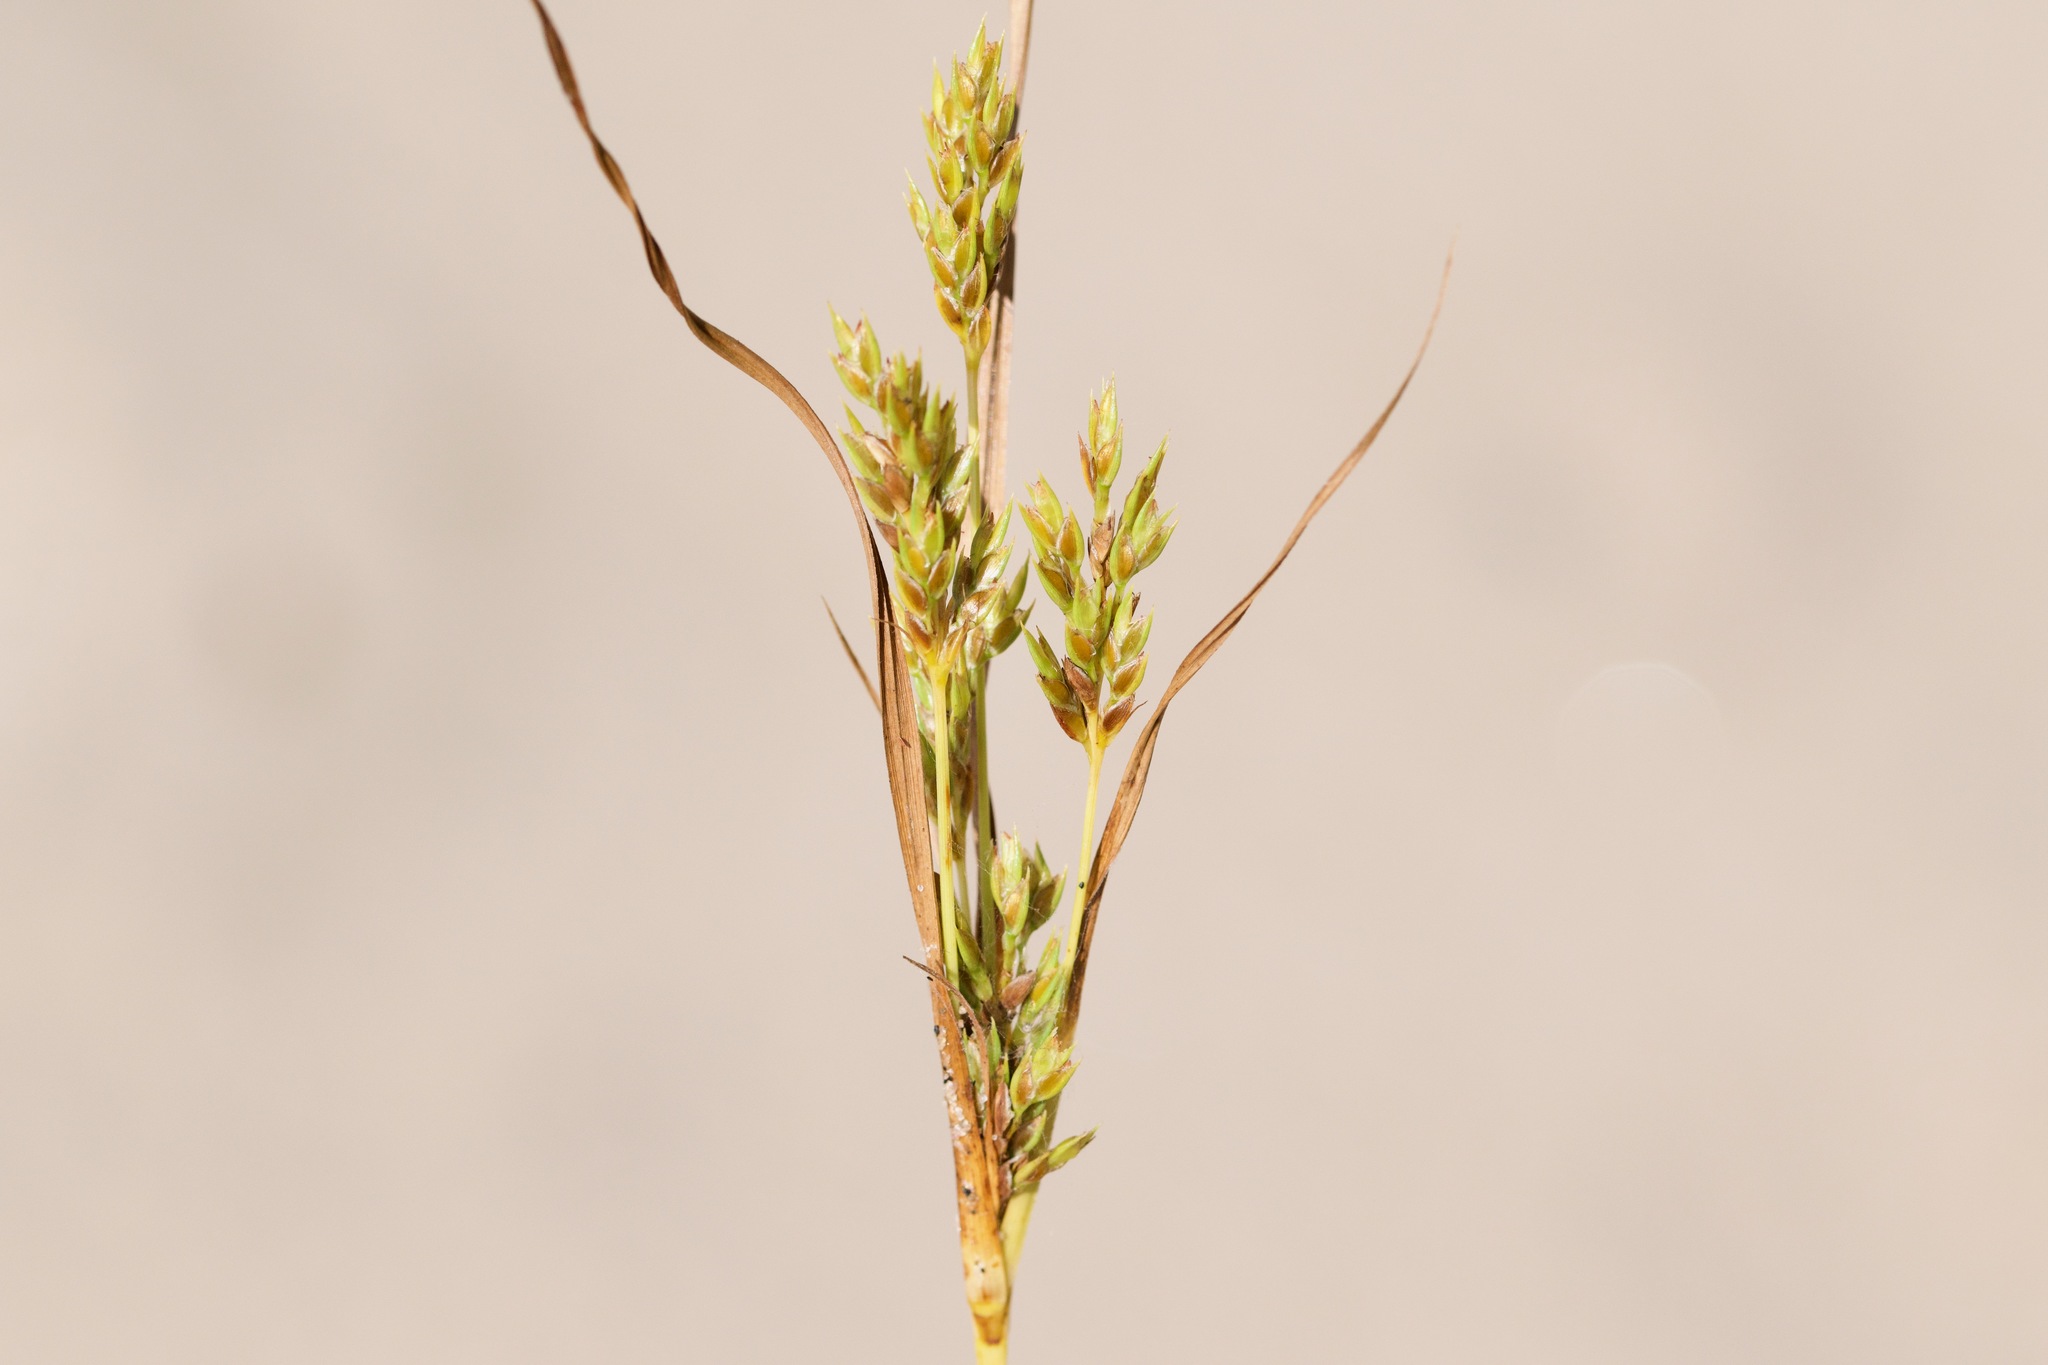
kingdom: Plantae
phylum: Tracheophyta
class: Liliopsida
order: Poales
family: Cyperaceae
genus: Cyperus
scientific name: Cyperus schweinitzii
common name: Schweinitz's cyperus
